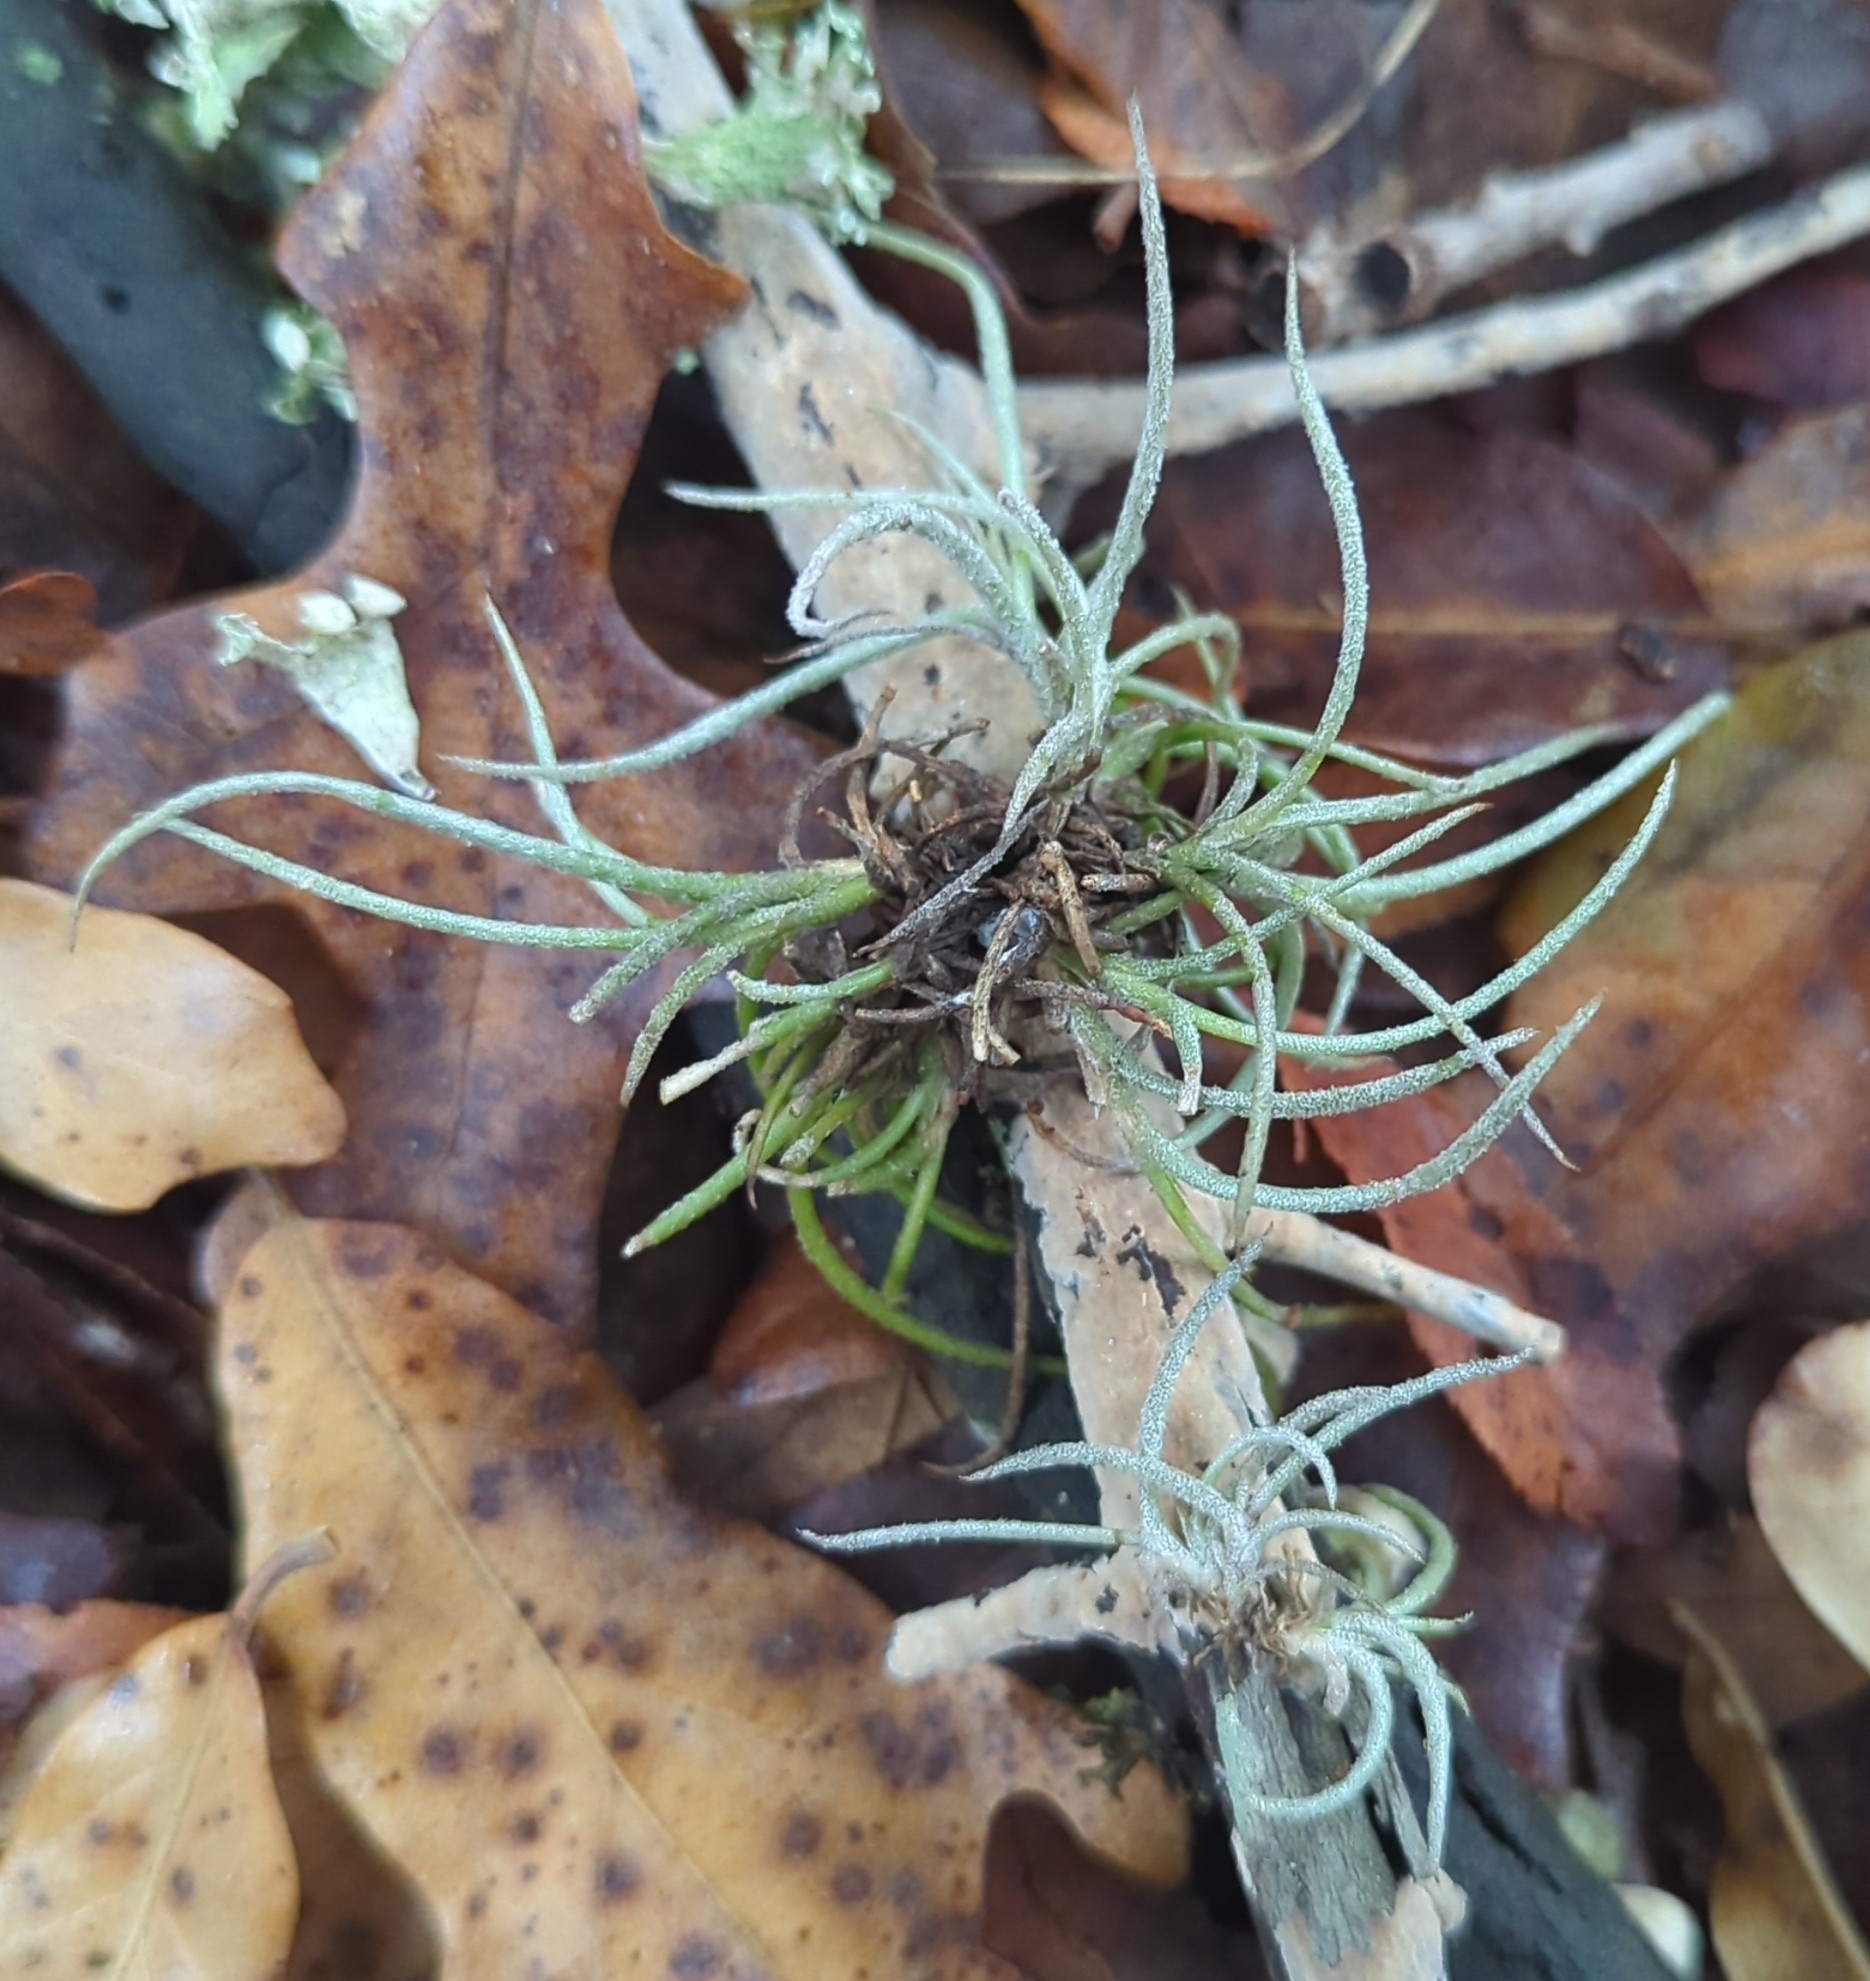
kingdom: Plantae
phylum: Tracheophyta
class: Liliopsida
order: Poales
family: Bromeliaceae
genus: Tillandsia
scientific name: Tillandsia recurvata
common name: Small ballmoss
